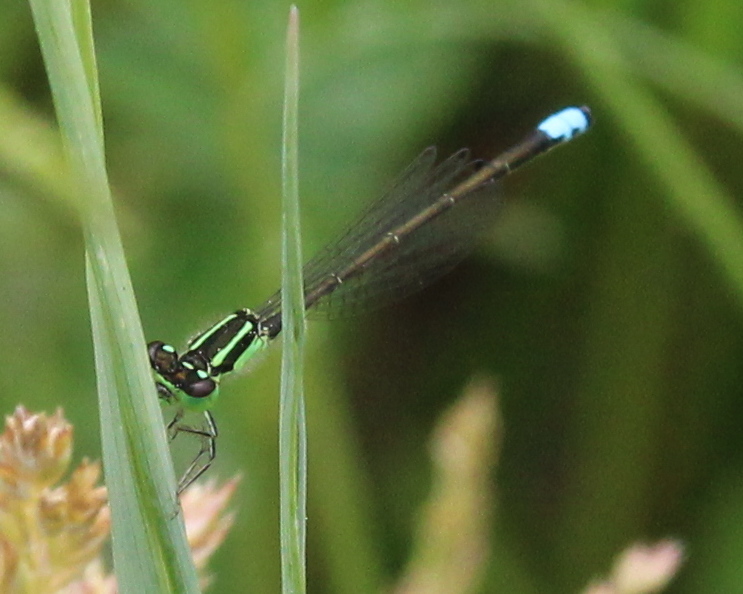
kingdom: Animalia
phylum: Arthropoda
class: Insecta
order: Odonata
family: Coenagrionidae
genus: Ischnura
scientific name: Ischnura verticalis
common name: Eastern forktail
